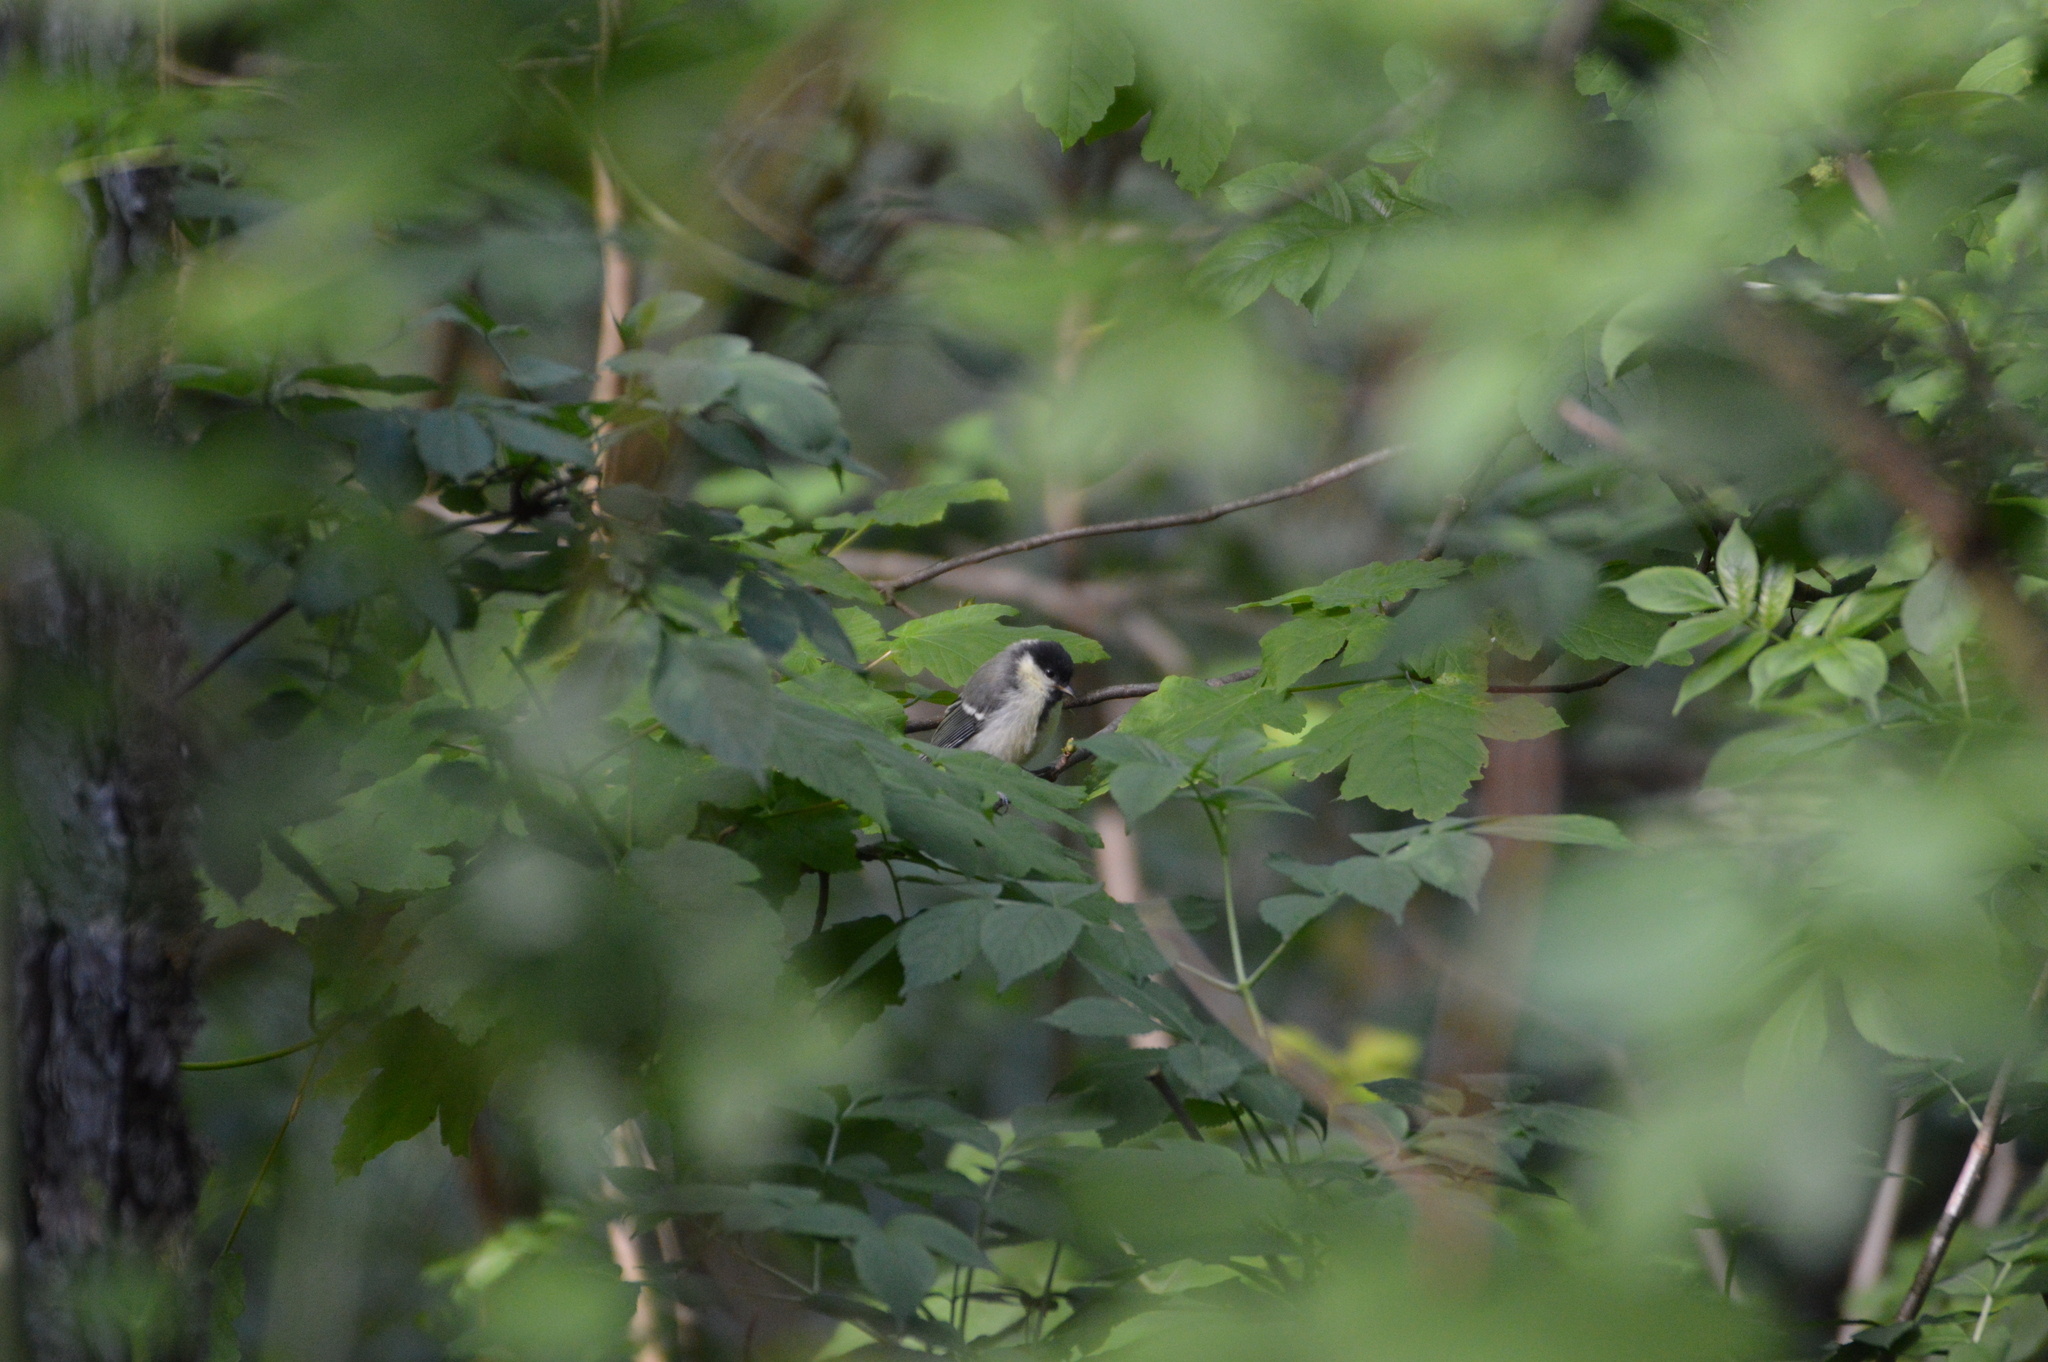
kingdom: Animalia
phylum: Chordata
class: Aves
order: Passeriformes
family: Paridae
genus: Parus
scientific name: Parus major
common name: Great tit
